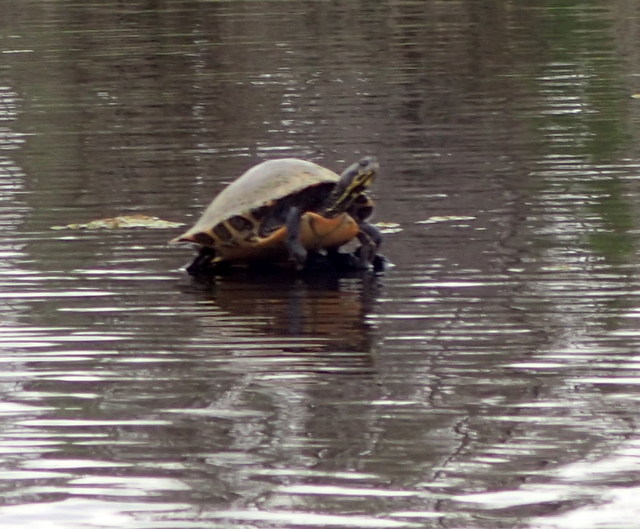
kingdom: Animalia
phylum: Chordata
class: Testudines
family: Emydidae
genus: Pseudemys
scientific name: Pseudemys concinna
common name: Eastern river cooter
